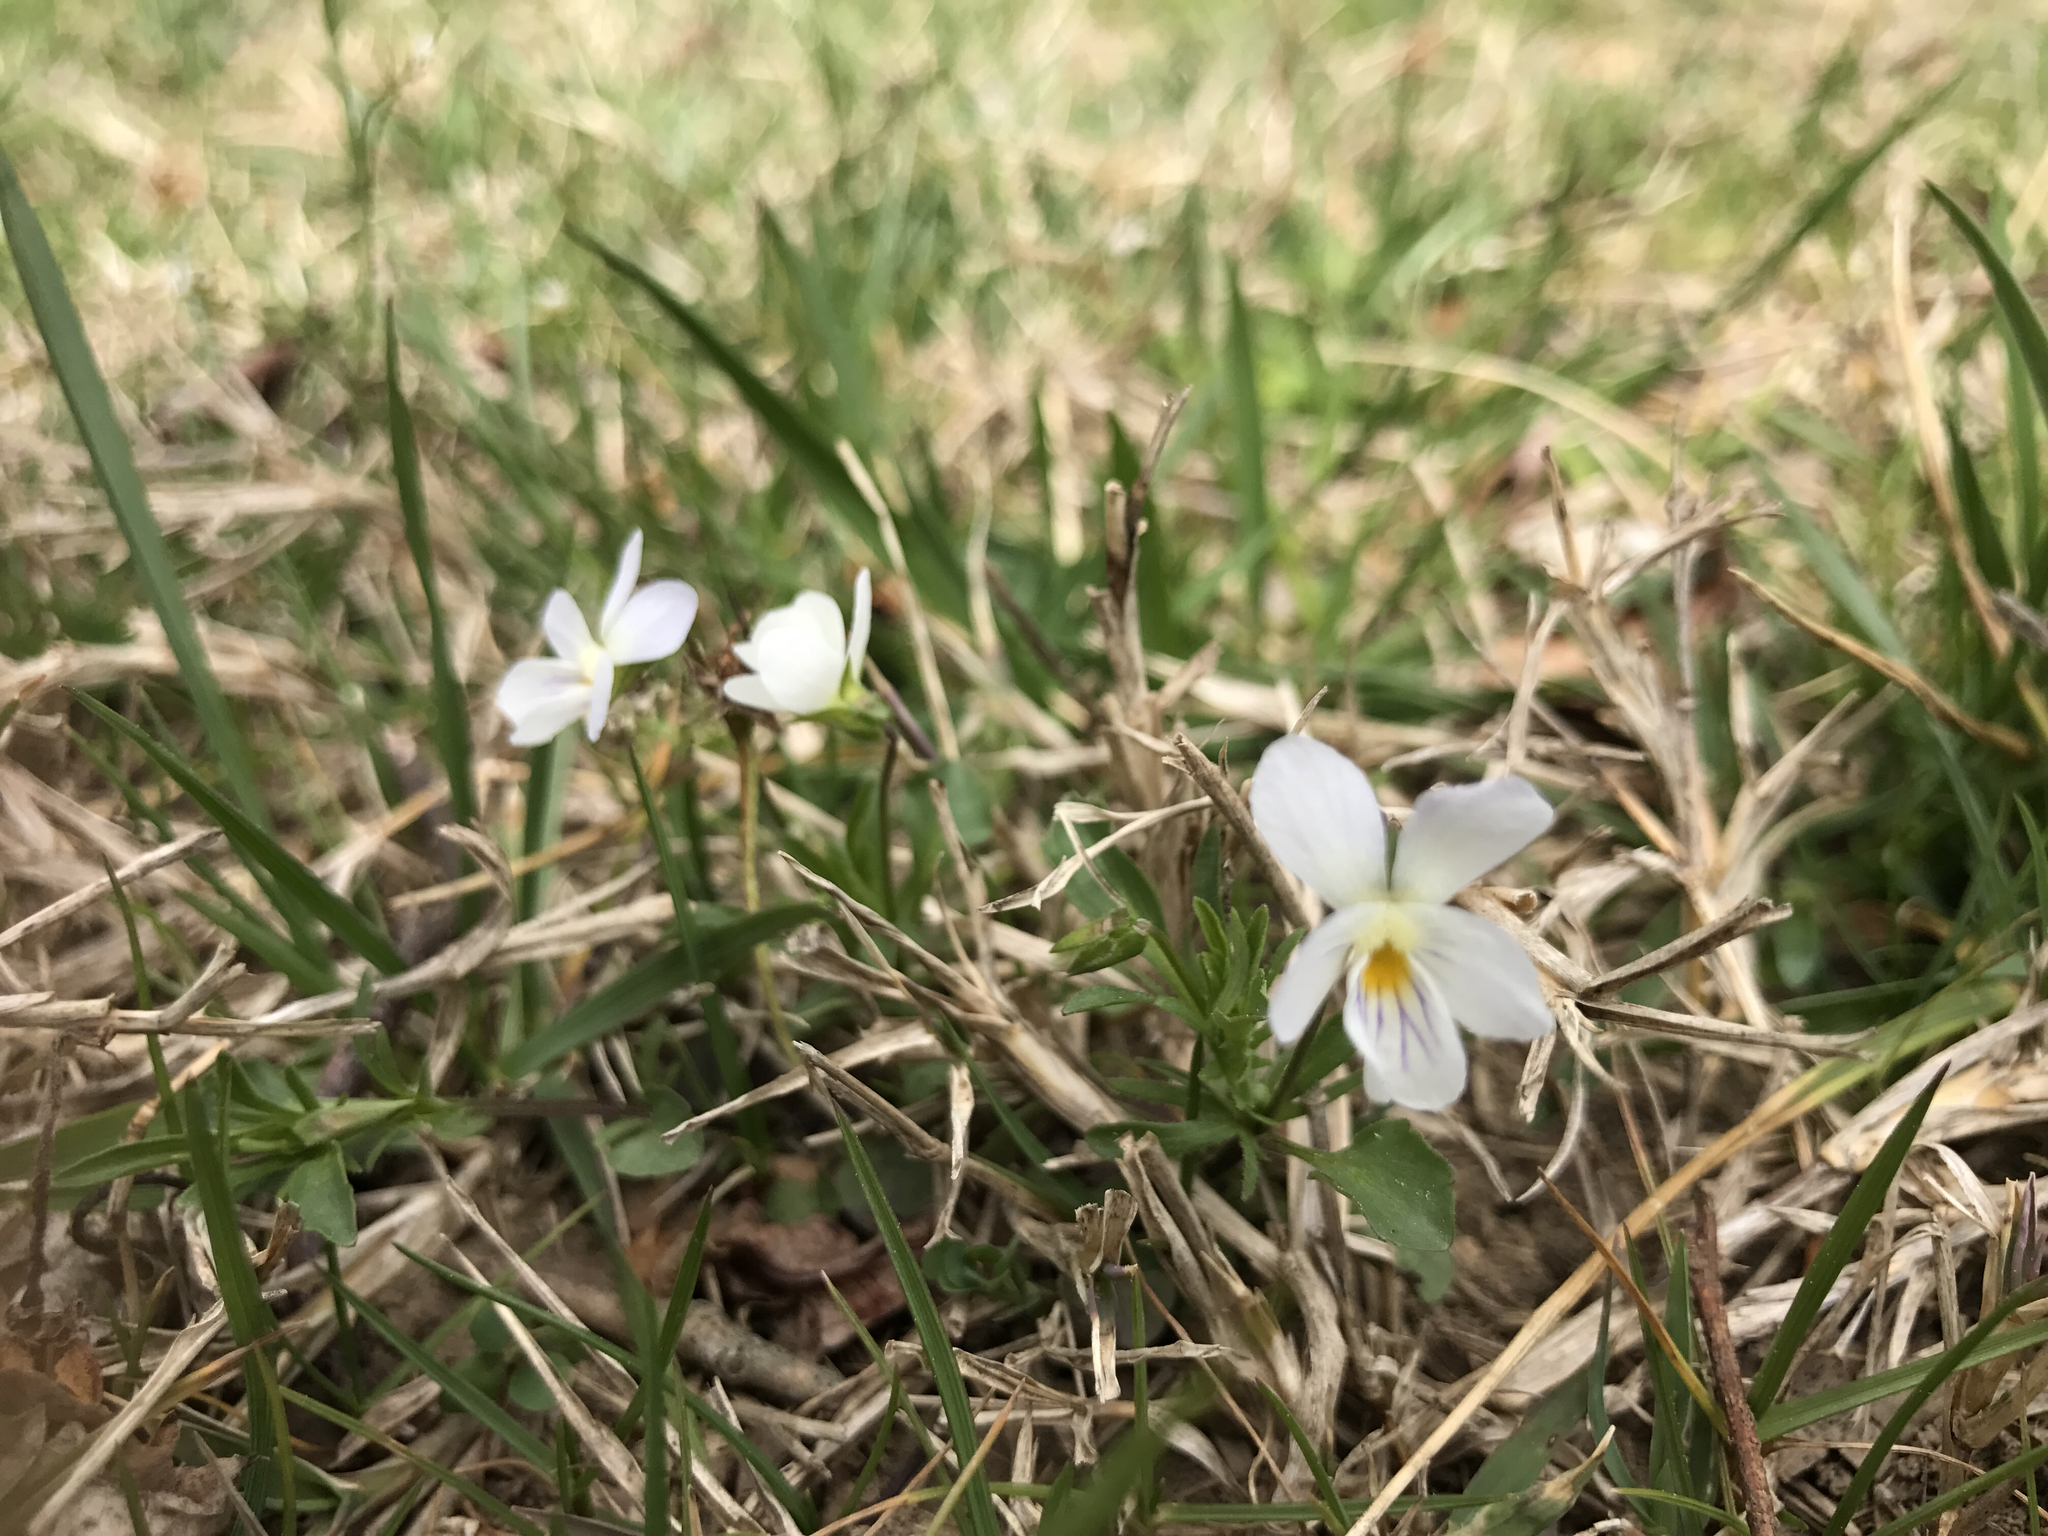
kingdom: Plantae
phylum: Tracheophyta
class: Magnoliopsida
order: Malpighiales
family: Violaceae
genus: Viola
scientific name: Viola rafinesquei
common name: American field pansy
